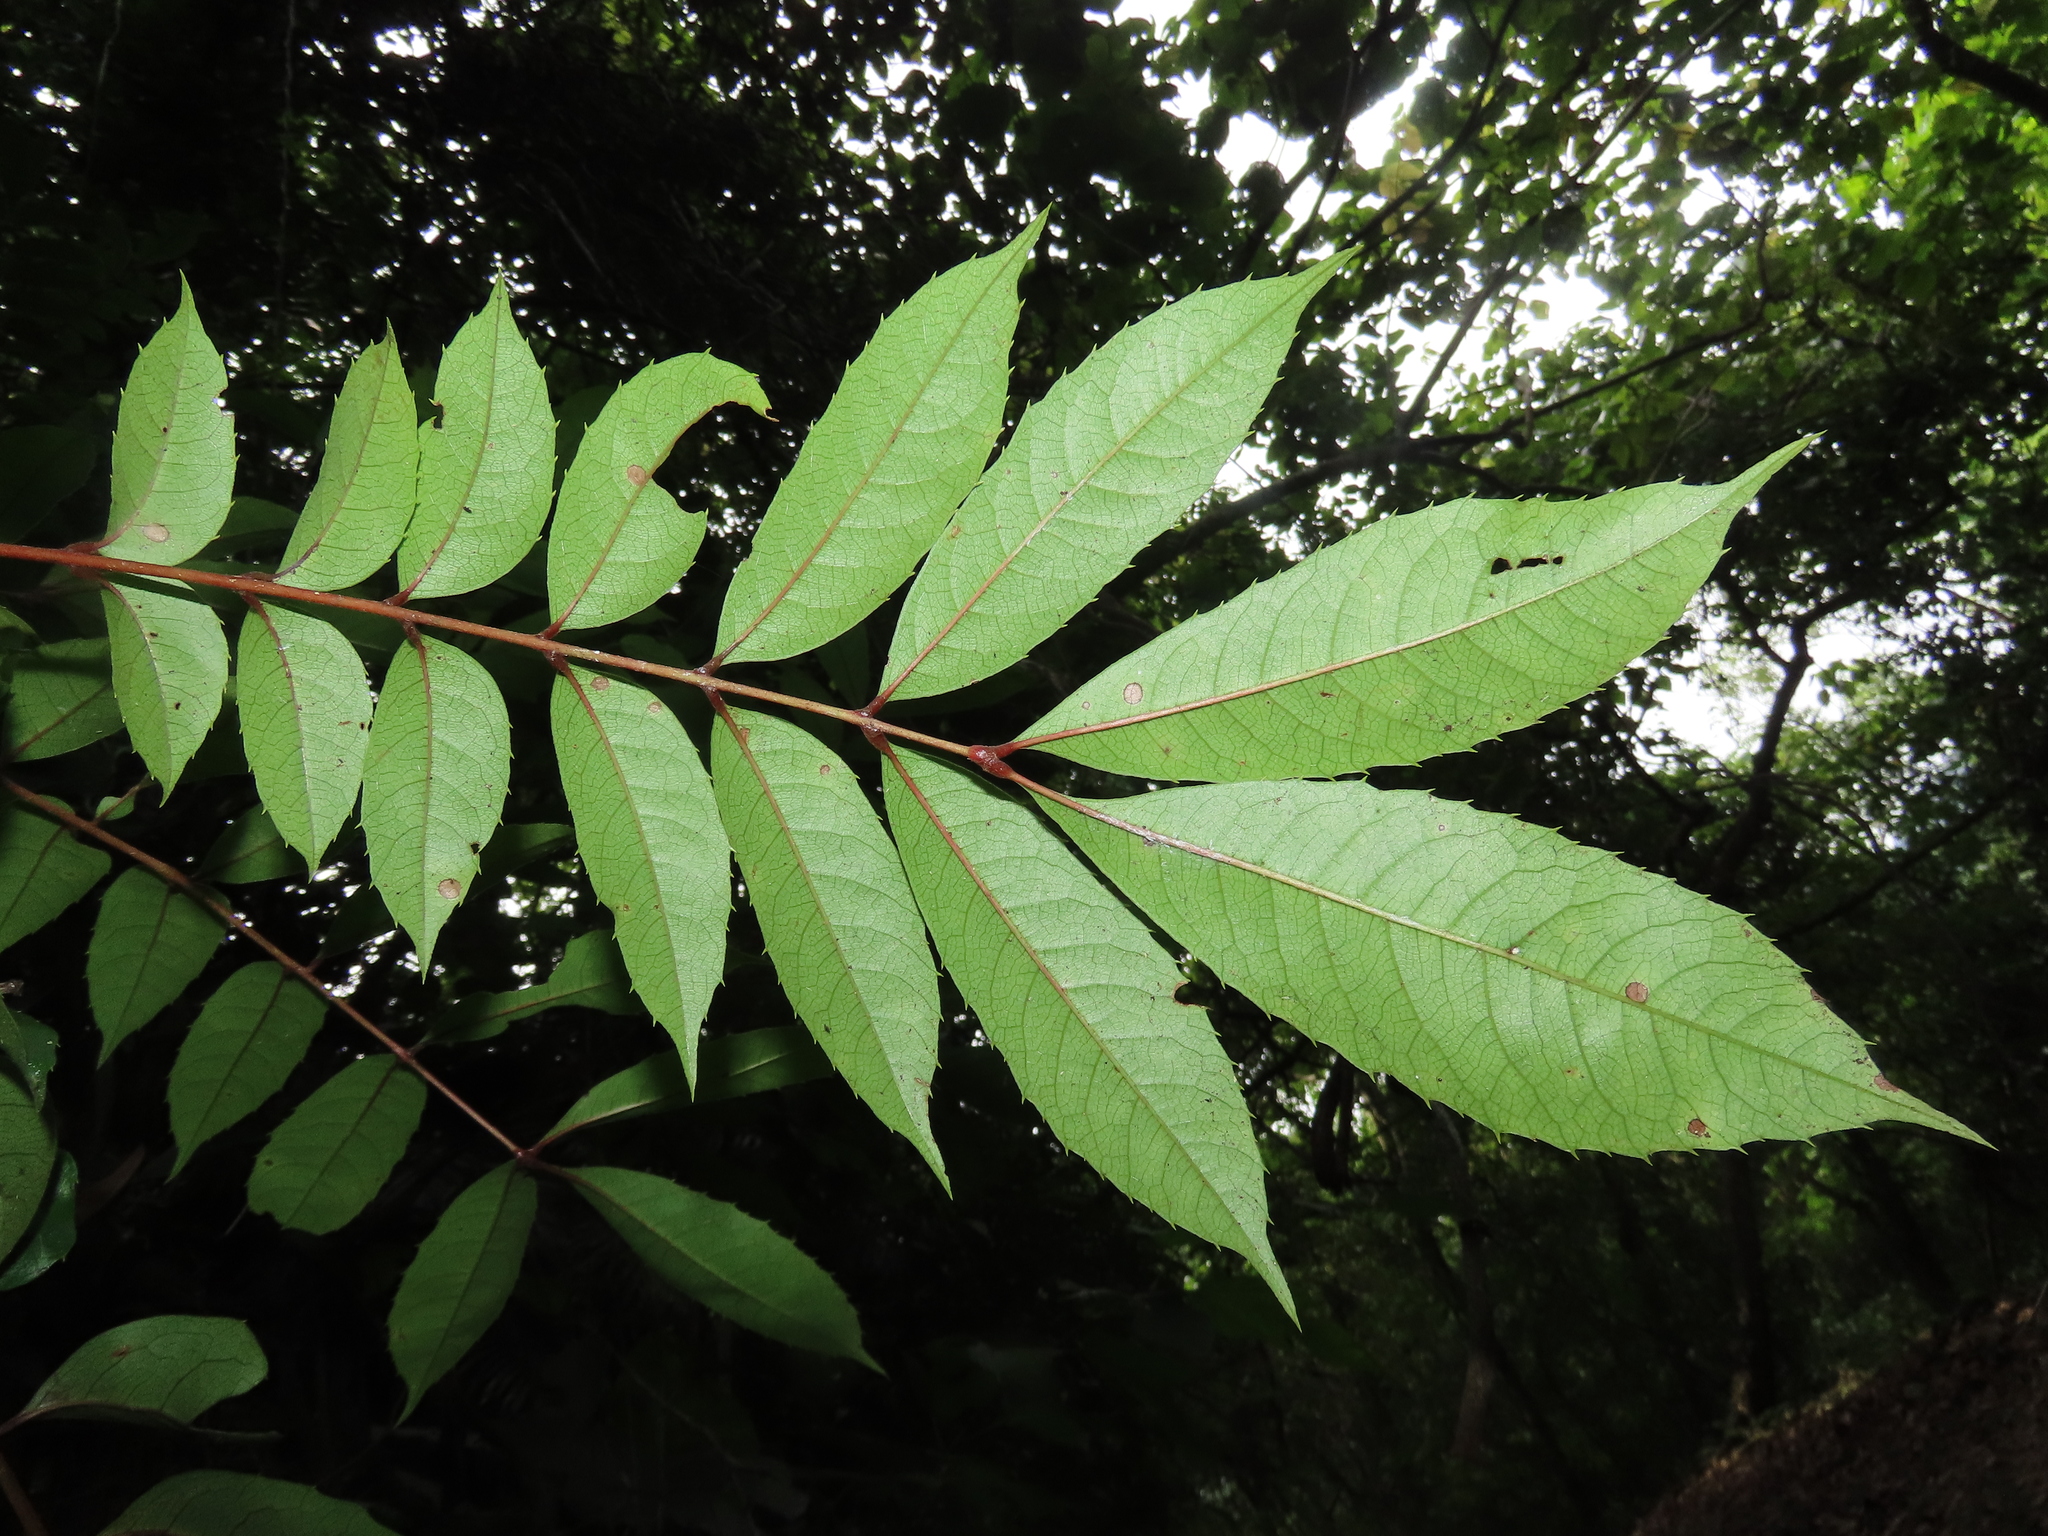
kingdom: Plantae
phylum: Tracheophyta
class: Magnoliopsida
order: Proteales
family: Sabiaceae
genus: Meliosma
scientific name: Meliosma rhoifolia
